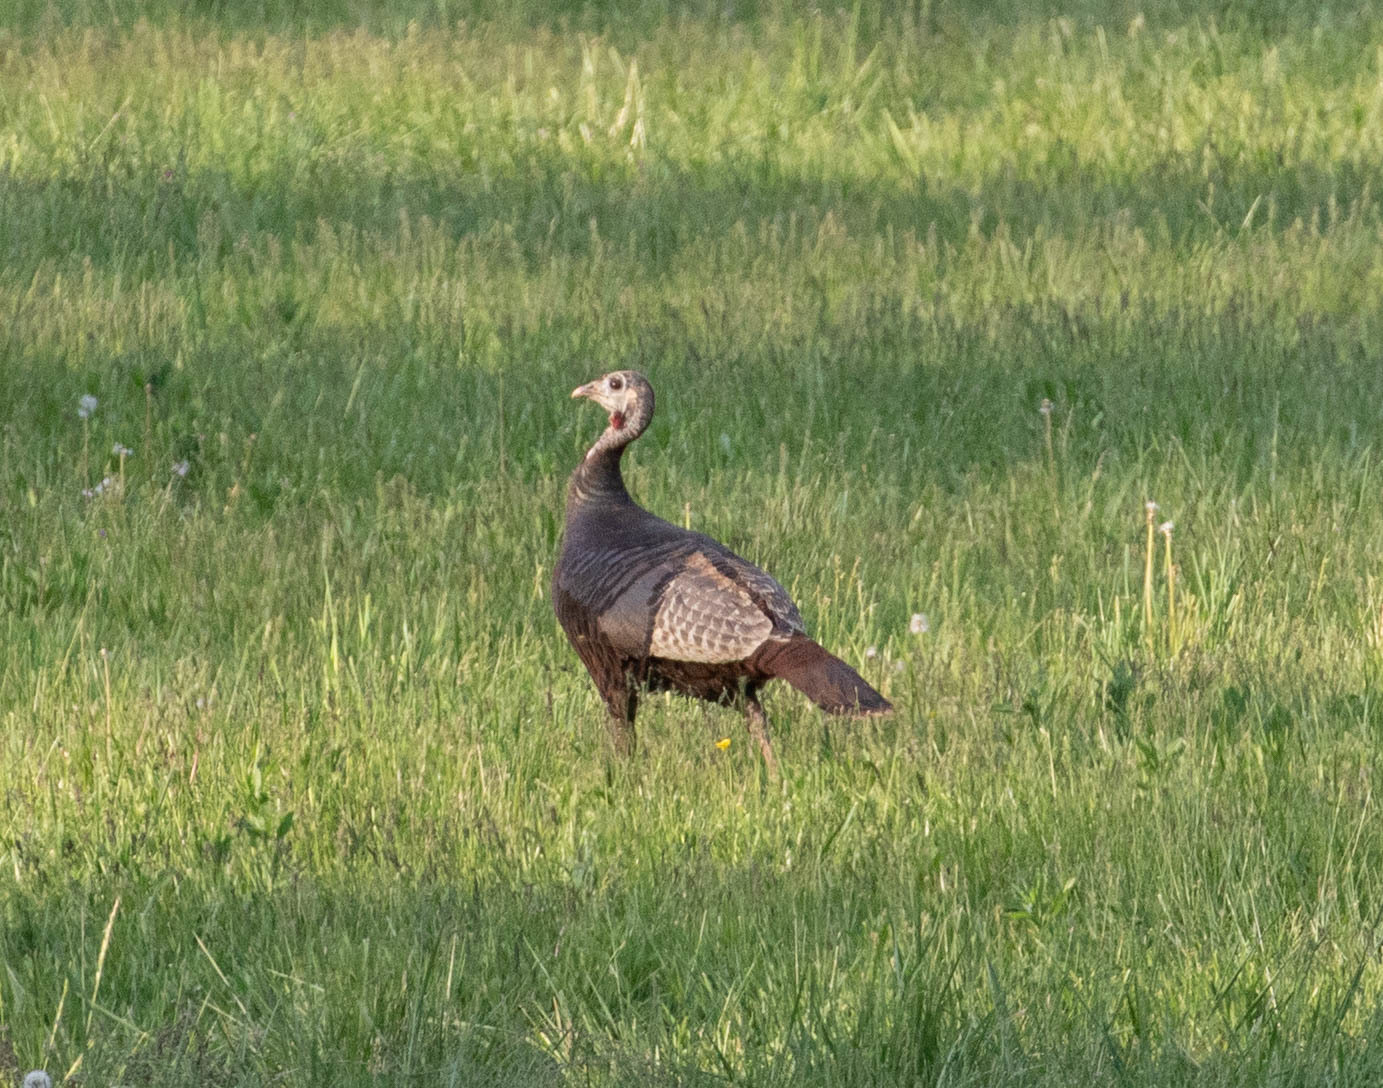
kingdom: Animalia
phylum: Chordata
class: Aves
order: Galliformes
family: Phasianidae
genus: Meleagris
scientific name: Meleagris gallopavo
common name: Wild turkey
